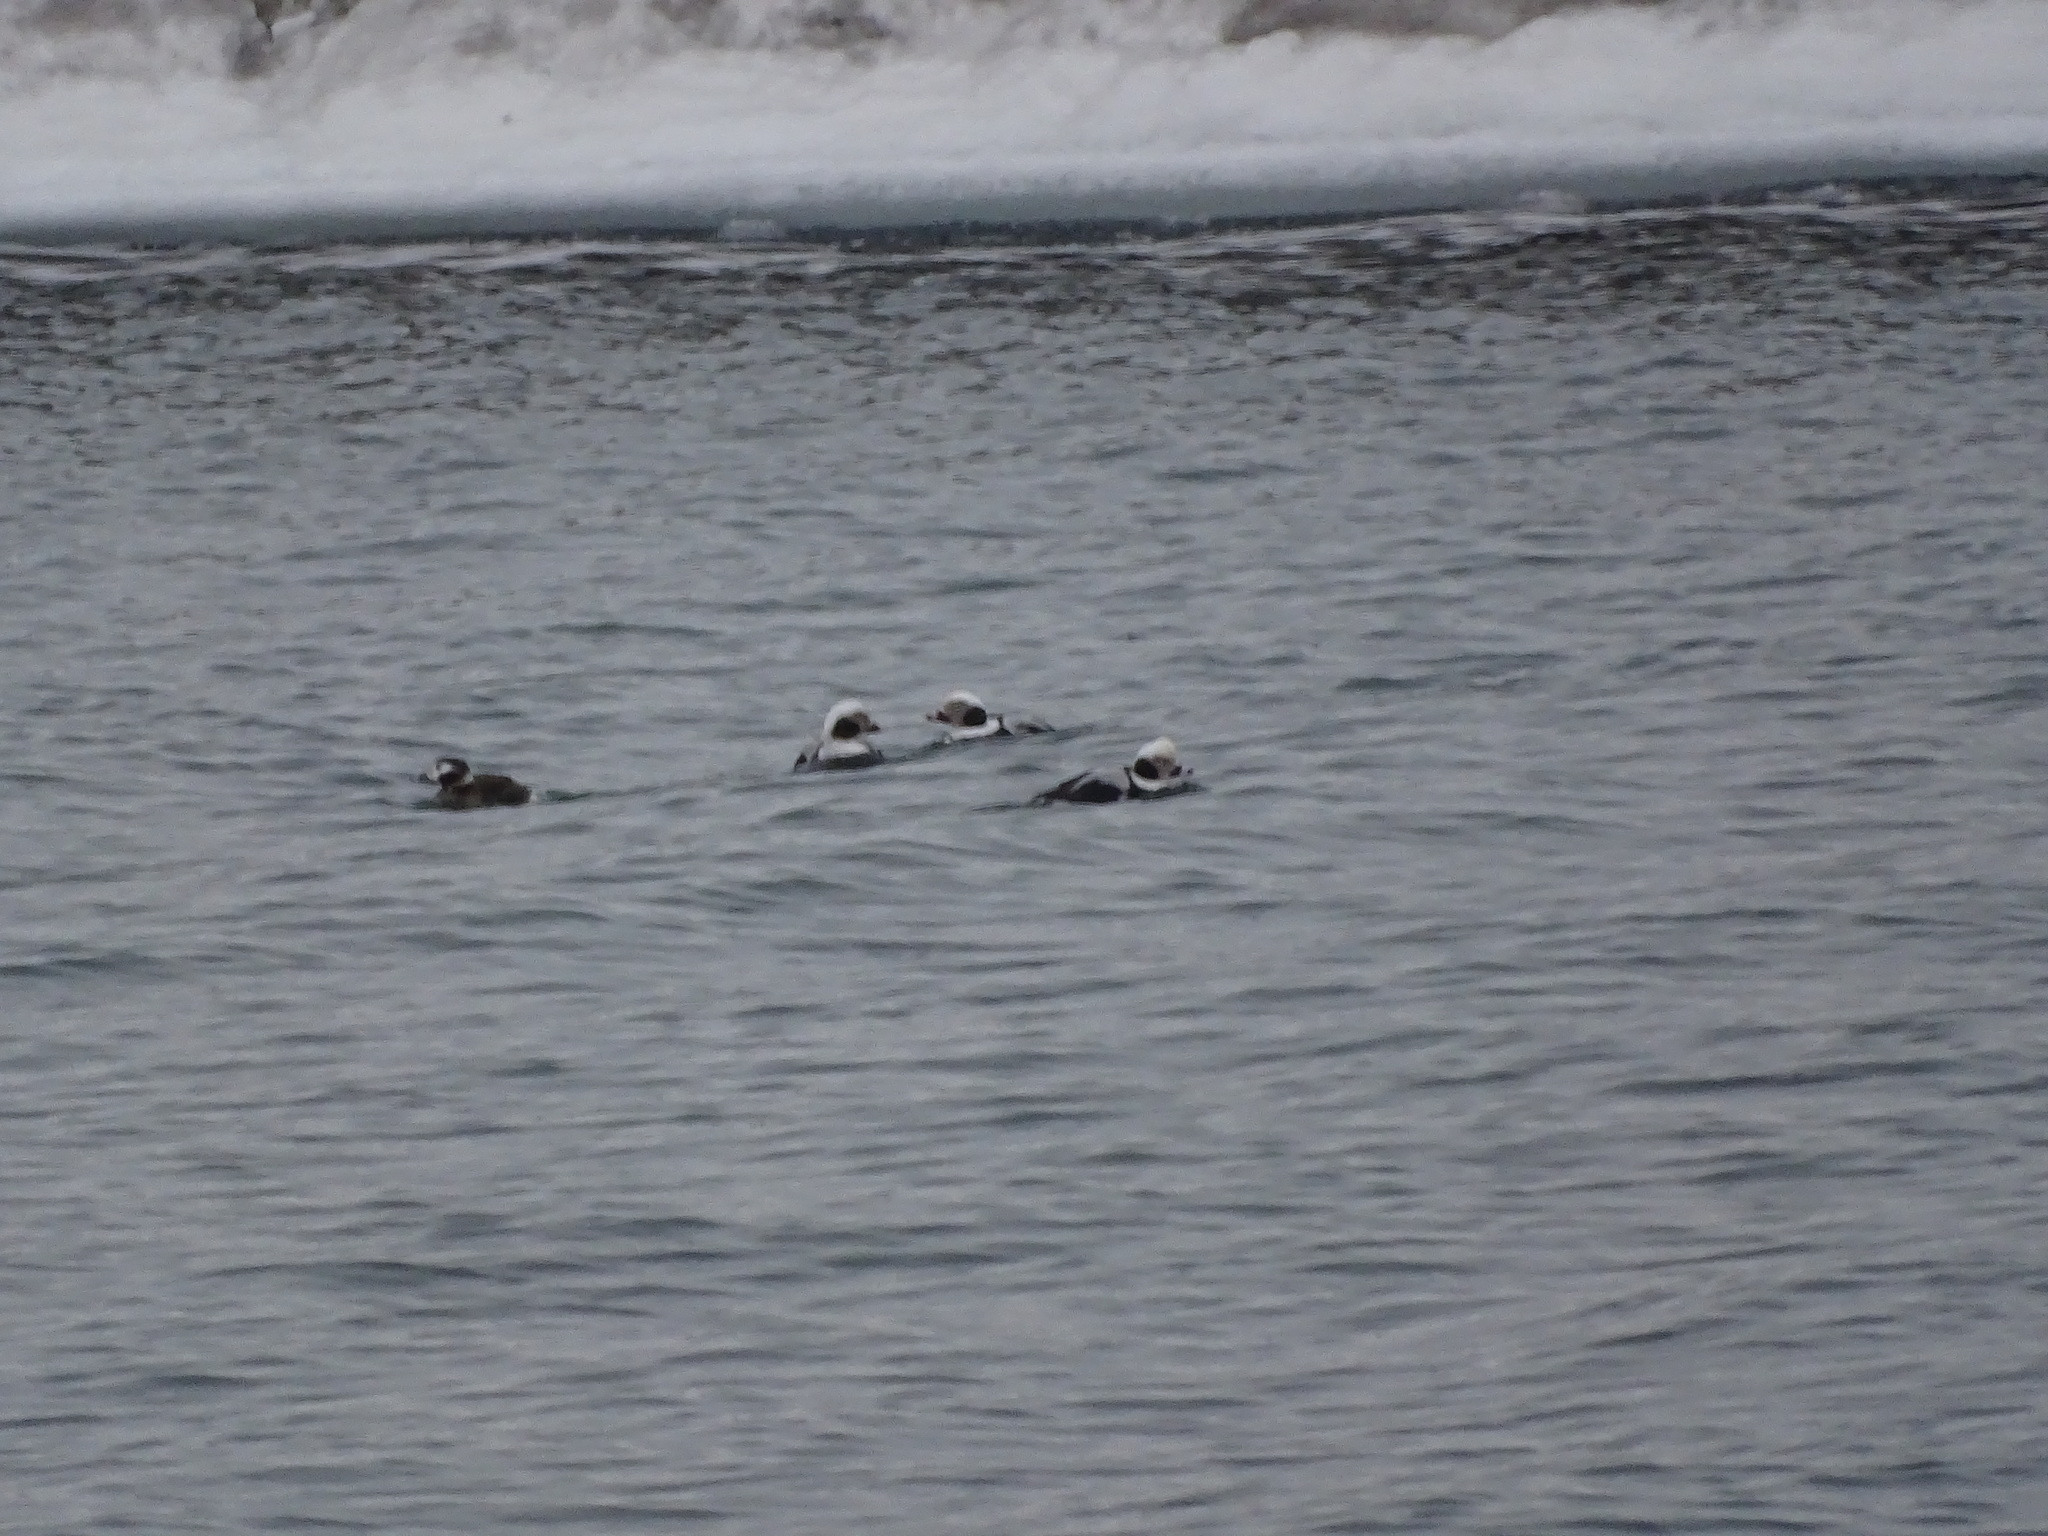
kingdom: Animalia
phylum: Chordata
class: Aves
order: Anseriformes
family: Anatidae
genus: Clangula
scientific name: Clangula hyemalis
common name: Long-tailed duck
